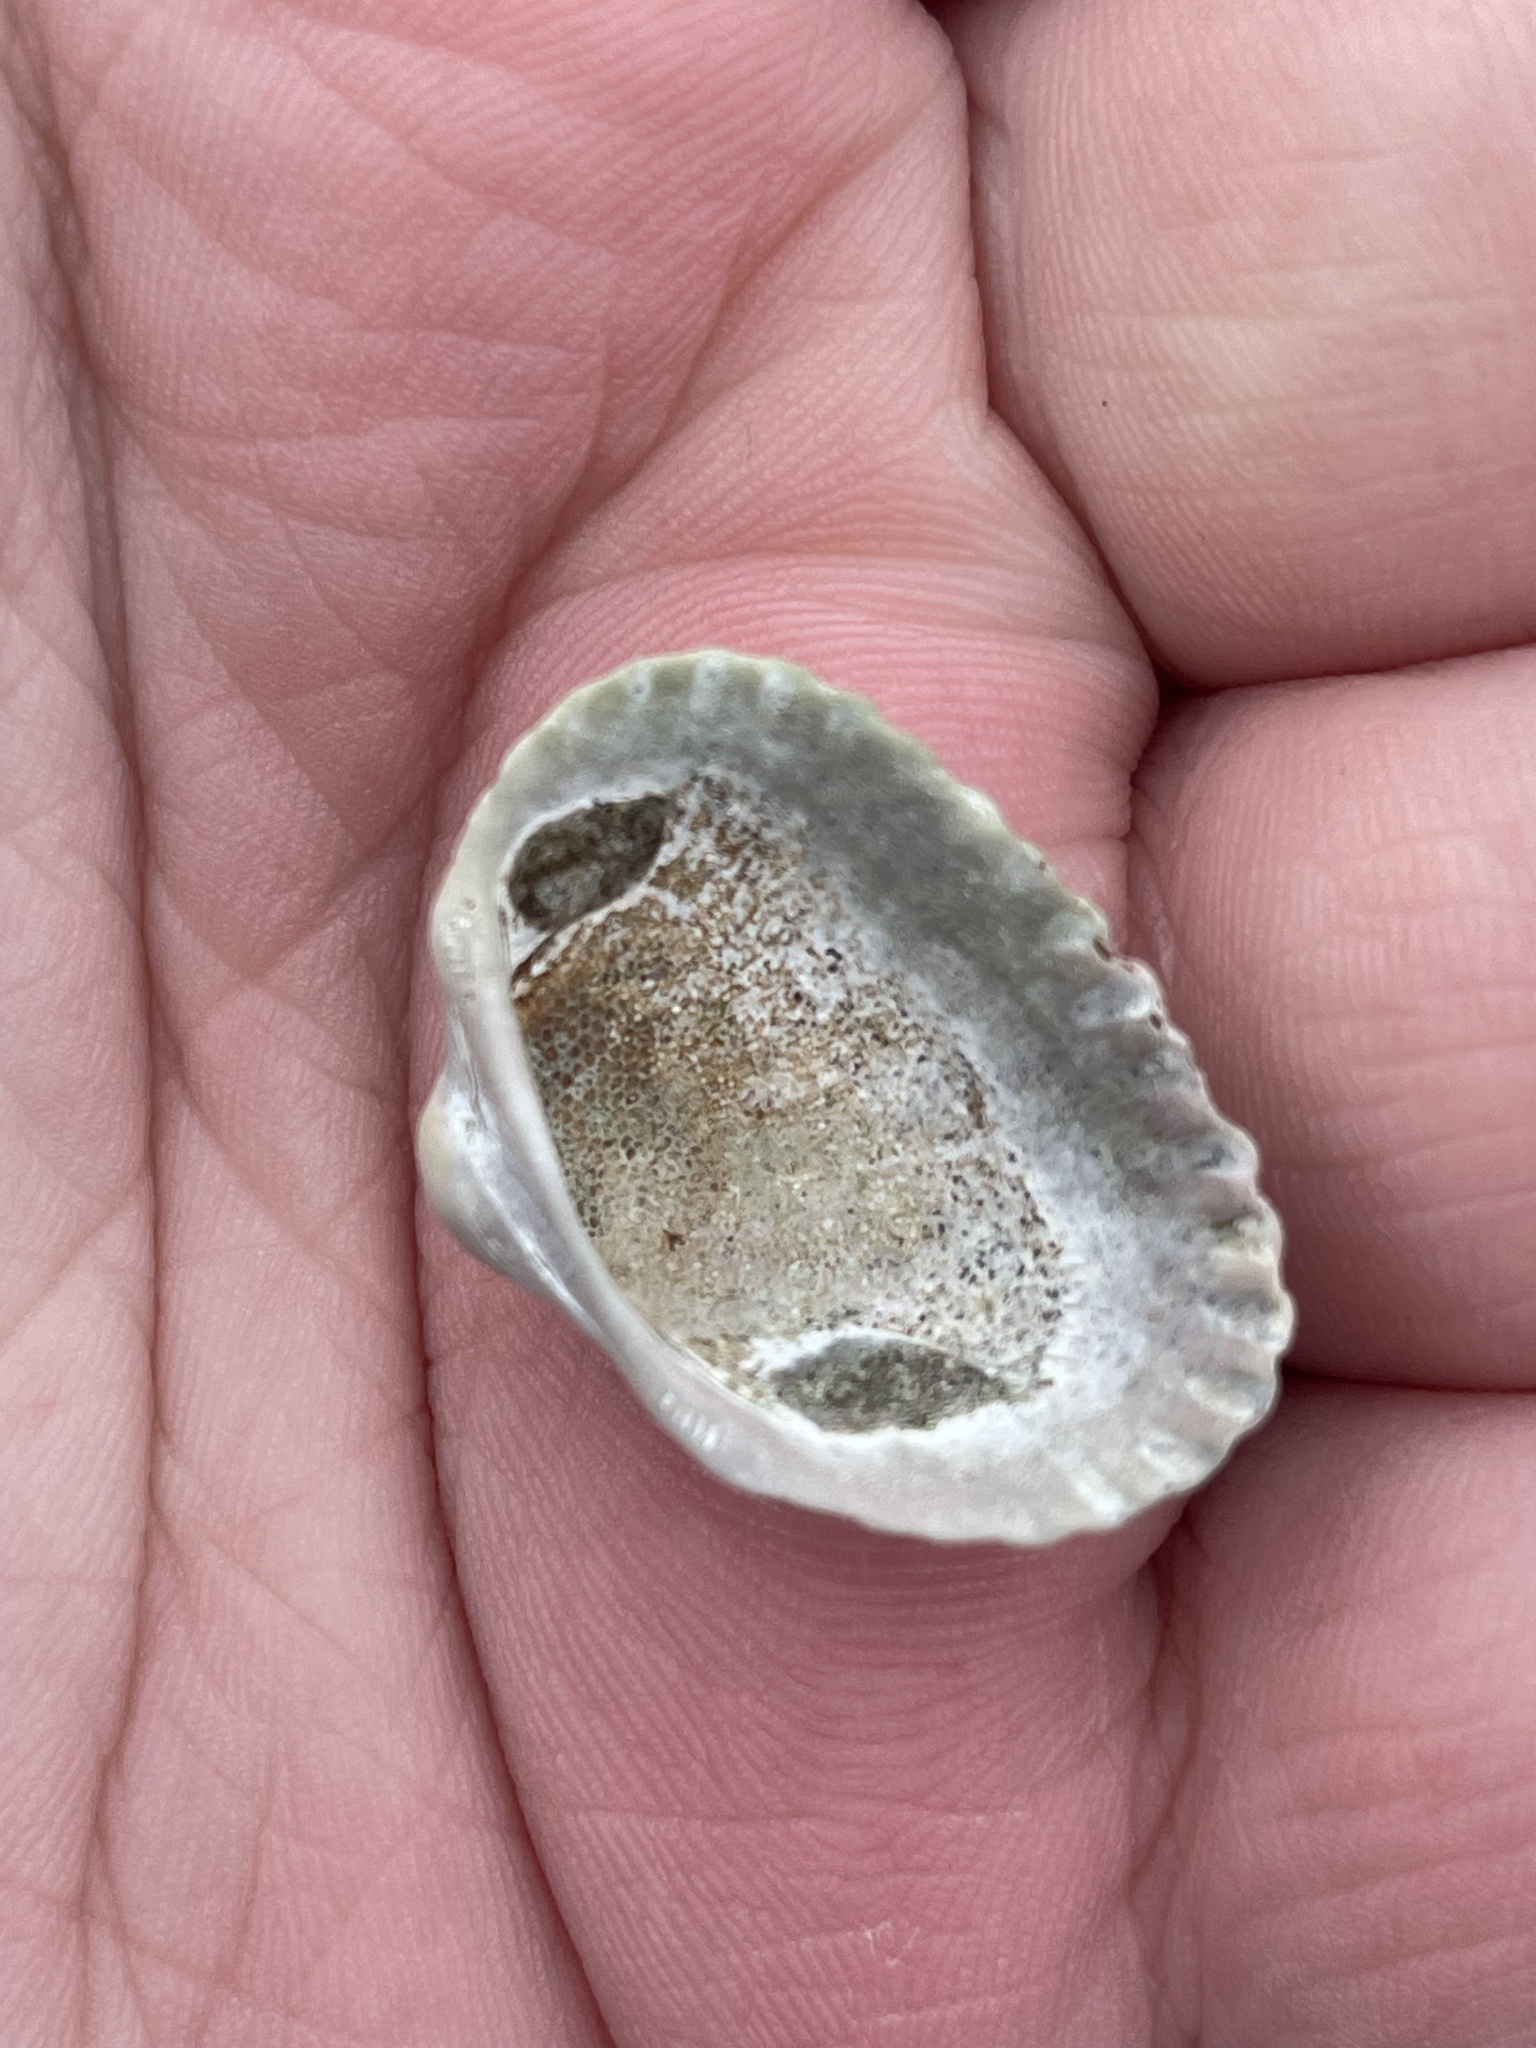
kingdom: Animalia
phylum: Mollusca
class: Bivalvia
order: Arcida
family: Arcidae
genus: Anadara
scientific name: Anadara transversa
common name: Transverse ark
